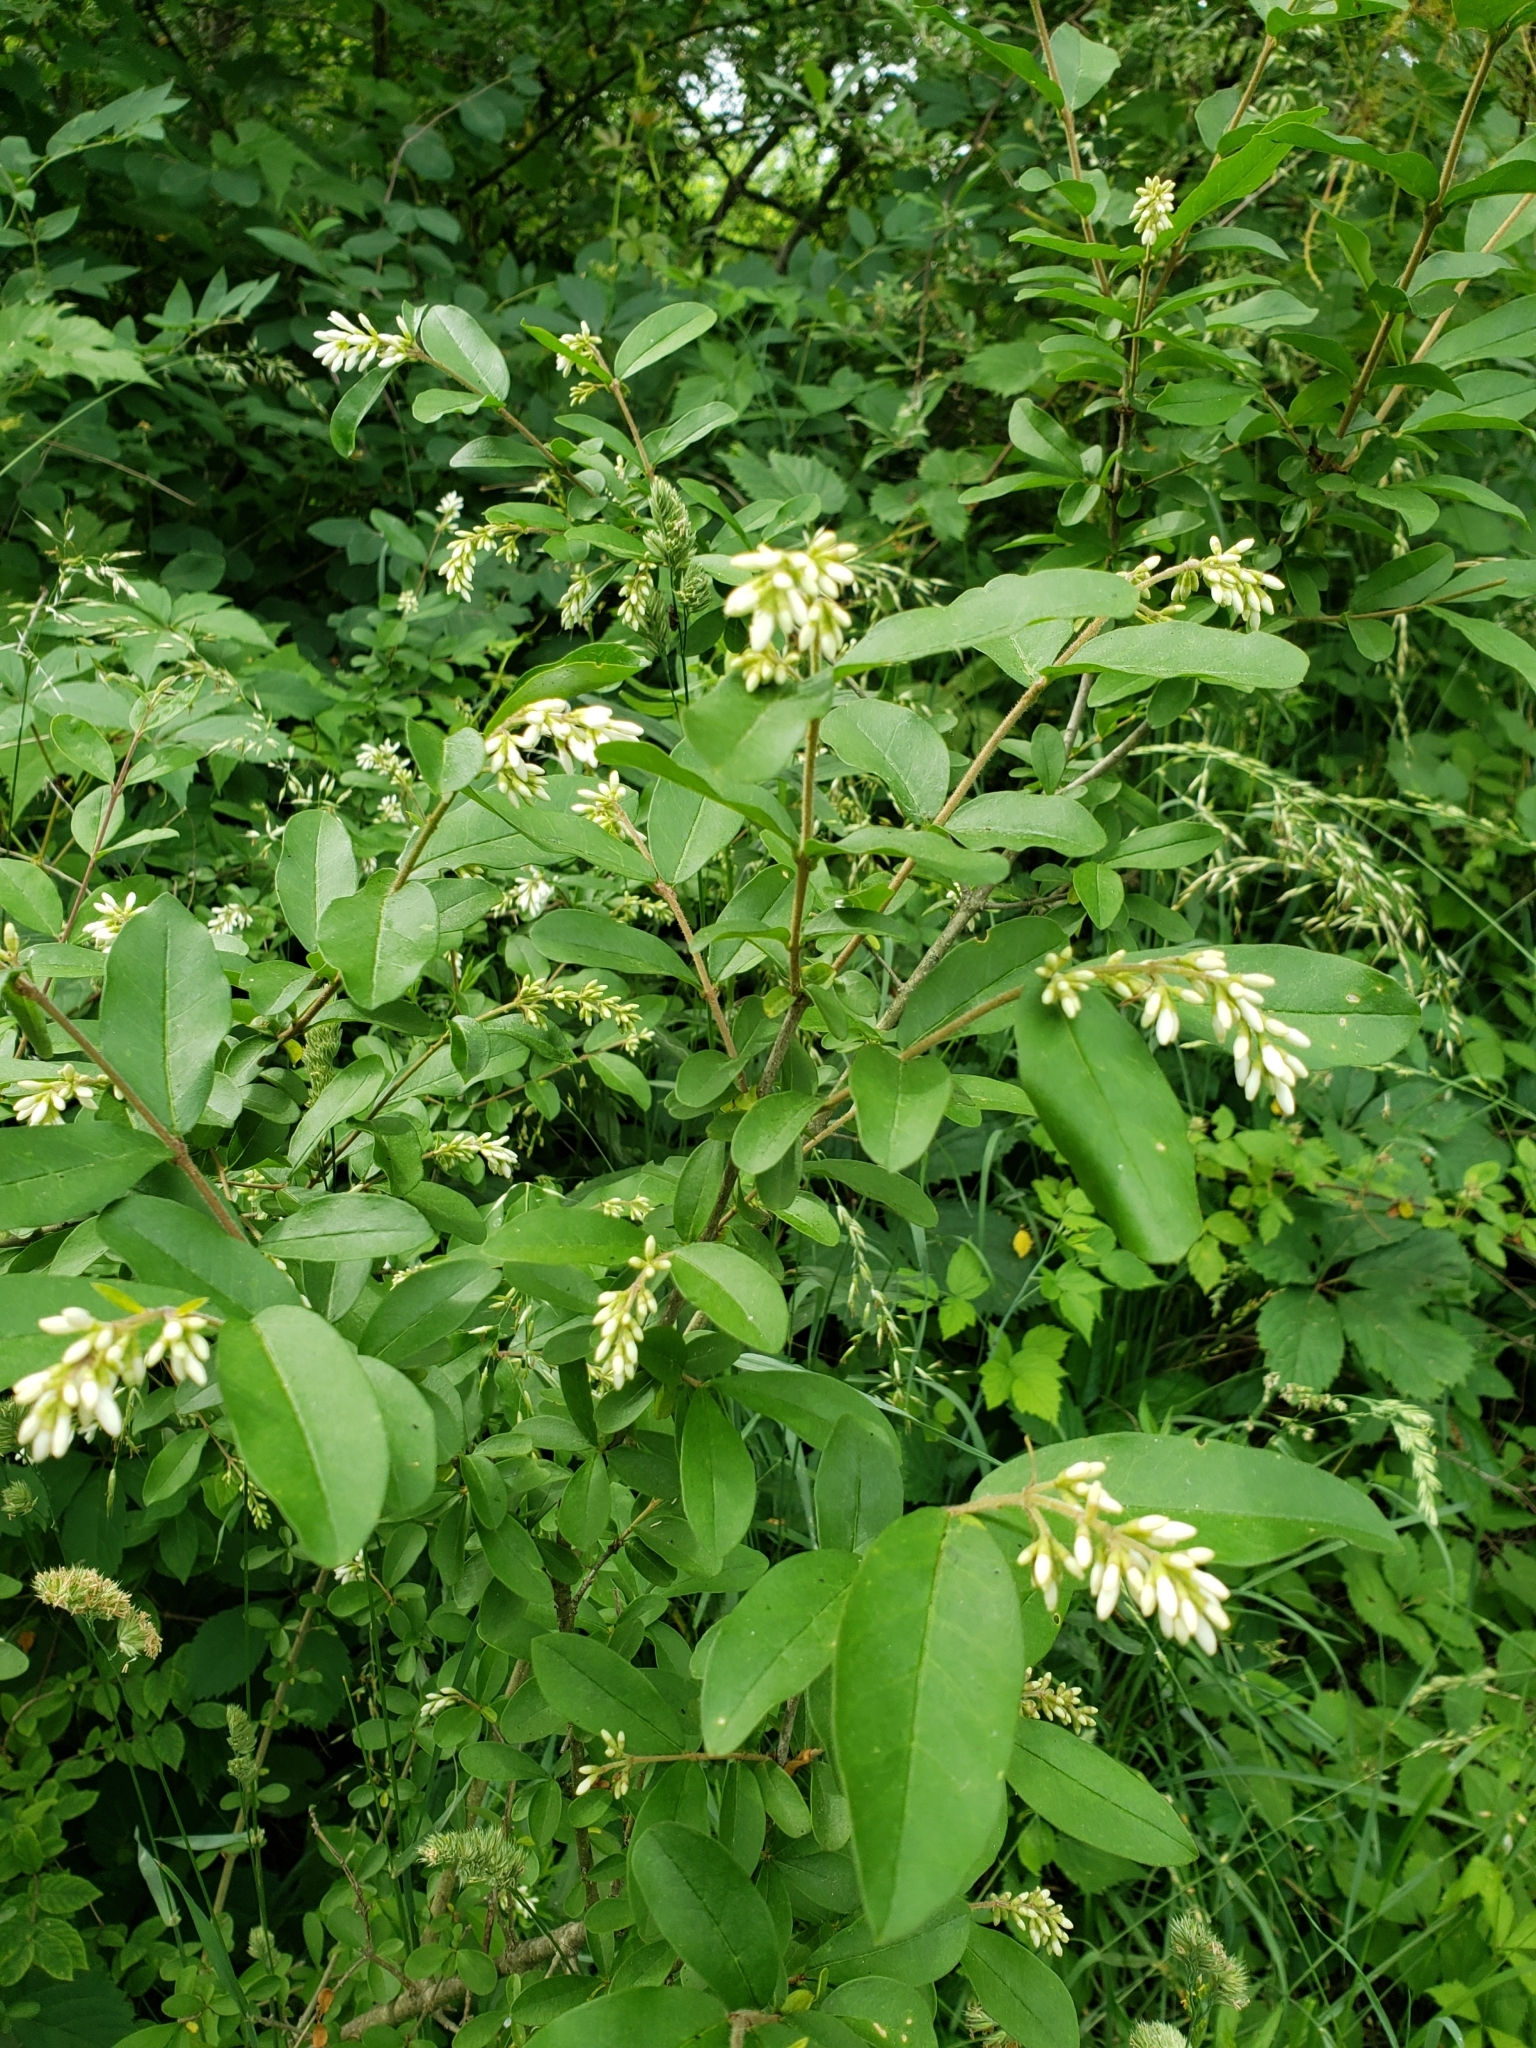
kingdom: Plantae
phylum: Tracheophyta
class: Magnoliopsida
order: Lamiales
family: Oleaceae
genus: Ligustrum
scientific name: Ligustrum vulgare
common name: Wild privet
